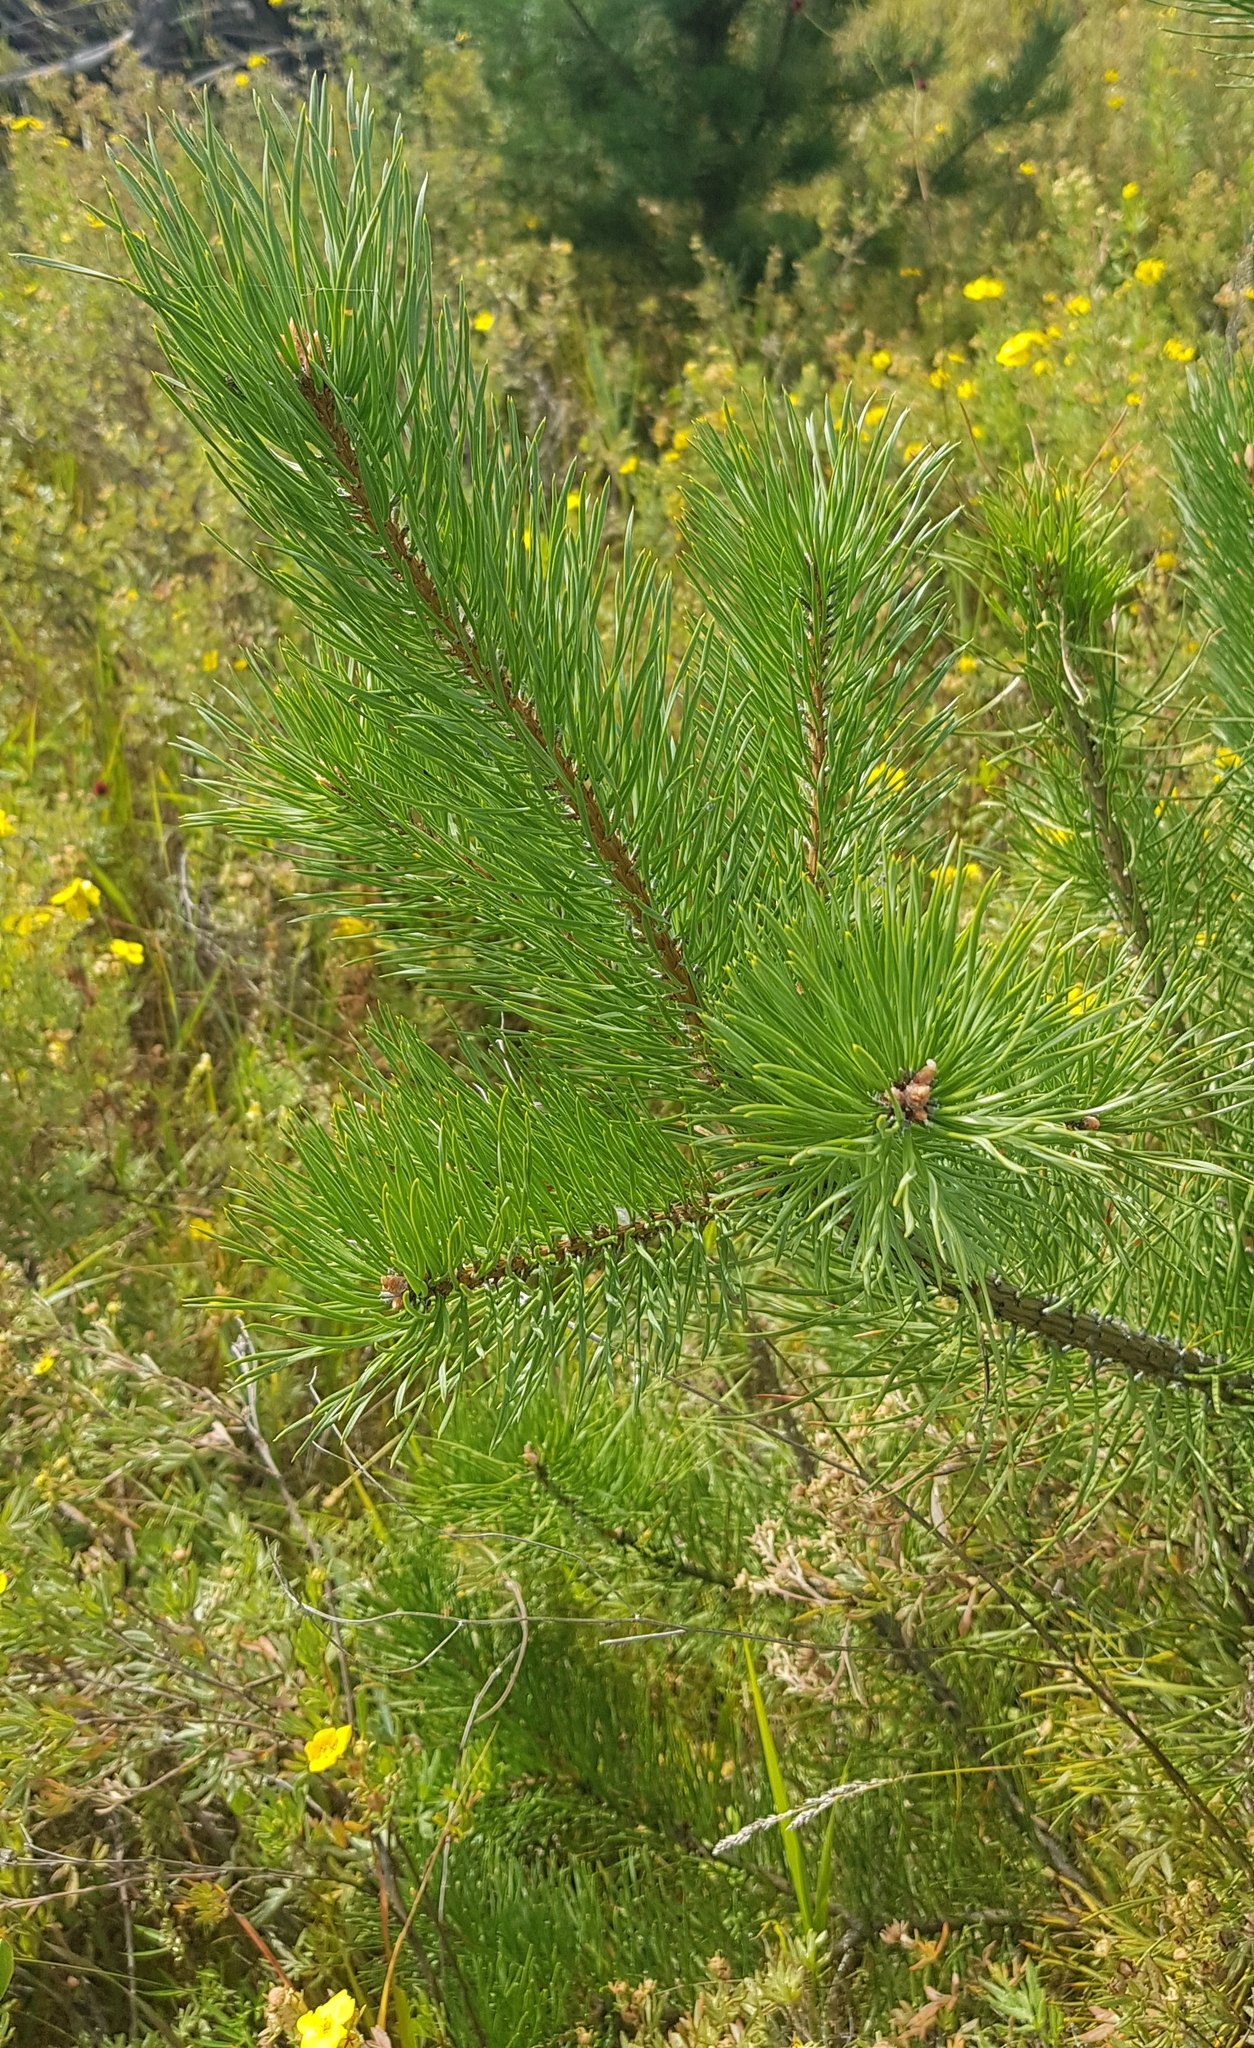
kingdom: Plantae
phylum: Tracheophyta
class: Pinopsida
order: Pinales
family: Pinaceae
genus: Pinus
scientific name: Pinus sylvestris
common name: Scots pine
